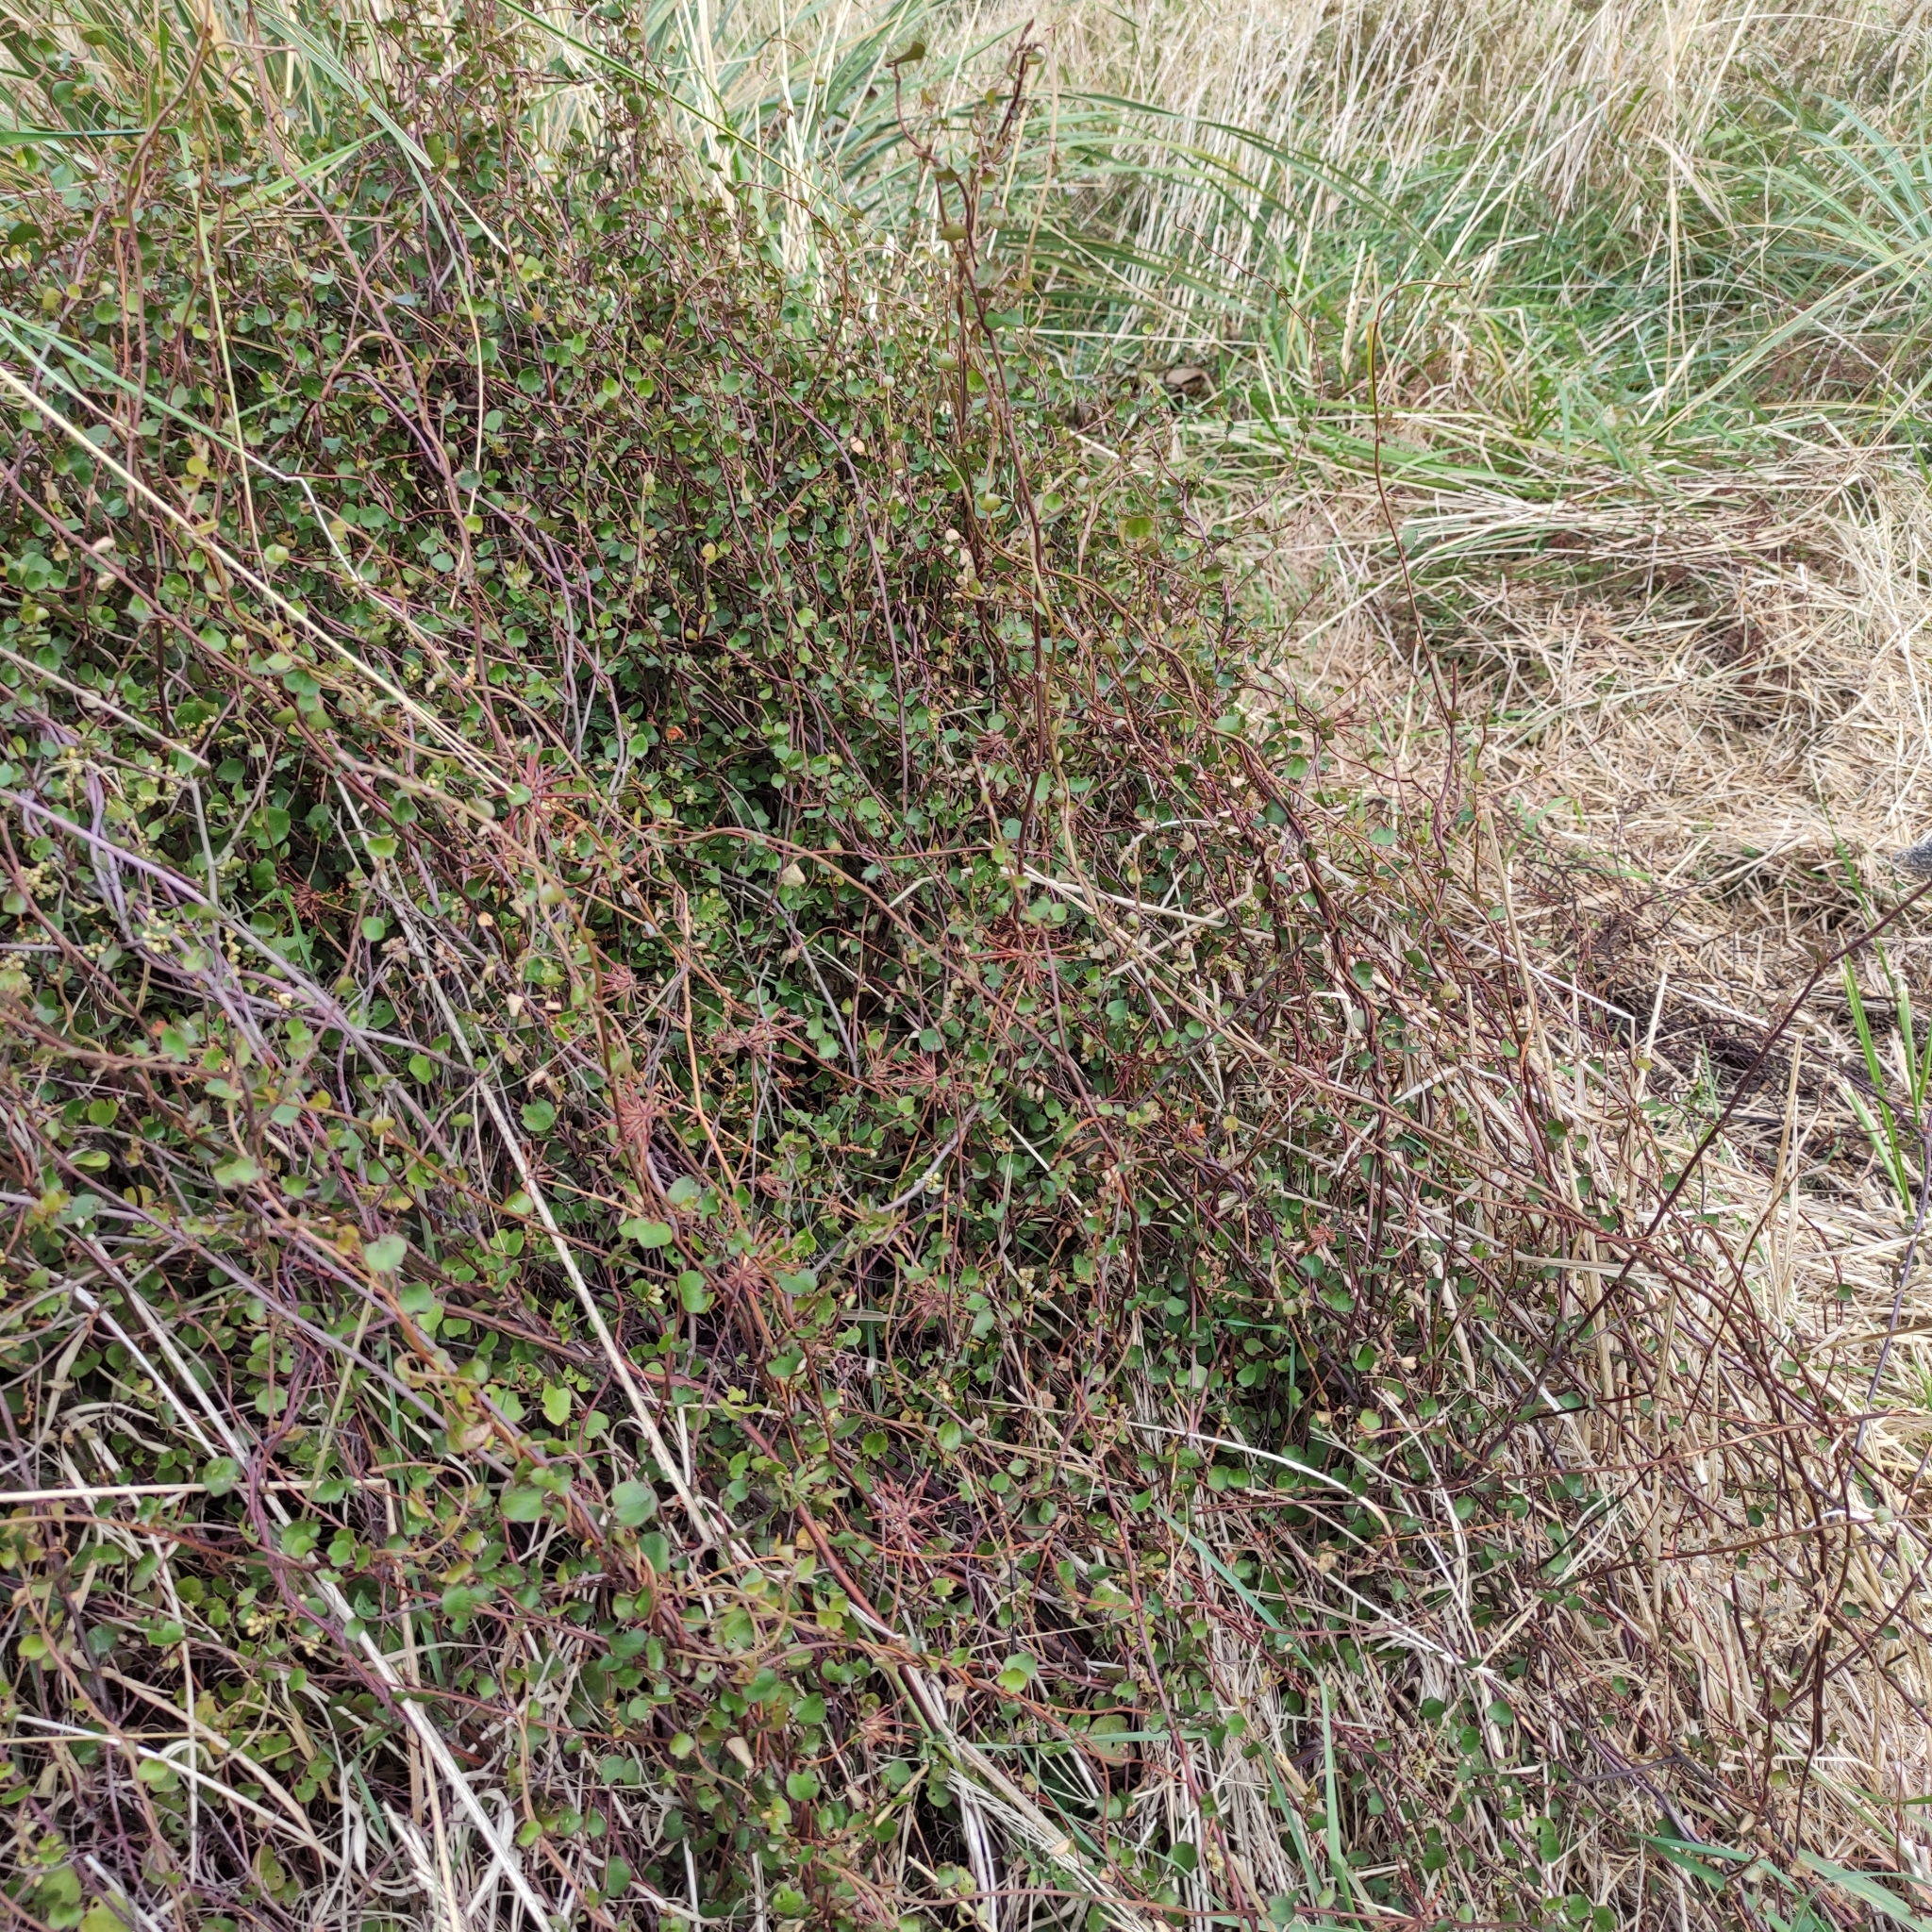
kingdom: Plantae
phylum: Tracheophyta
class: Magnoliopsida
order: Caryophyllales
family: Polygonaceae
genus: Muehlenbeckia
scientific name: Muehlenbeckia complexa
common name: Wireplant
